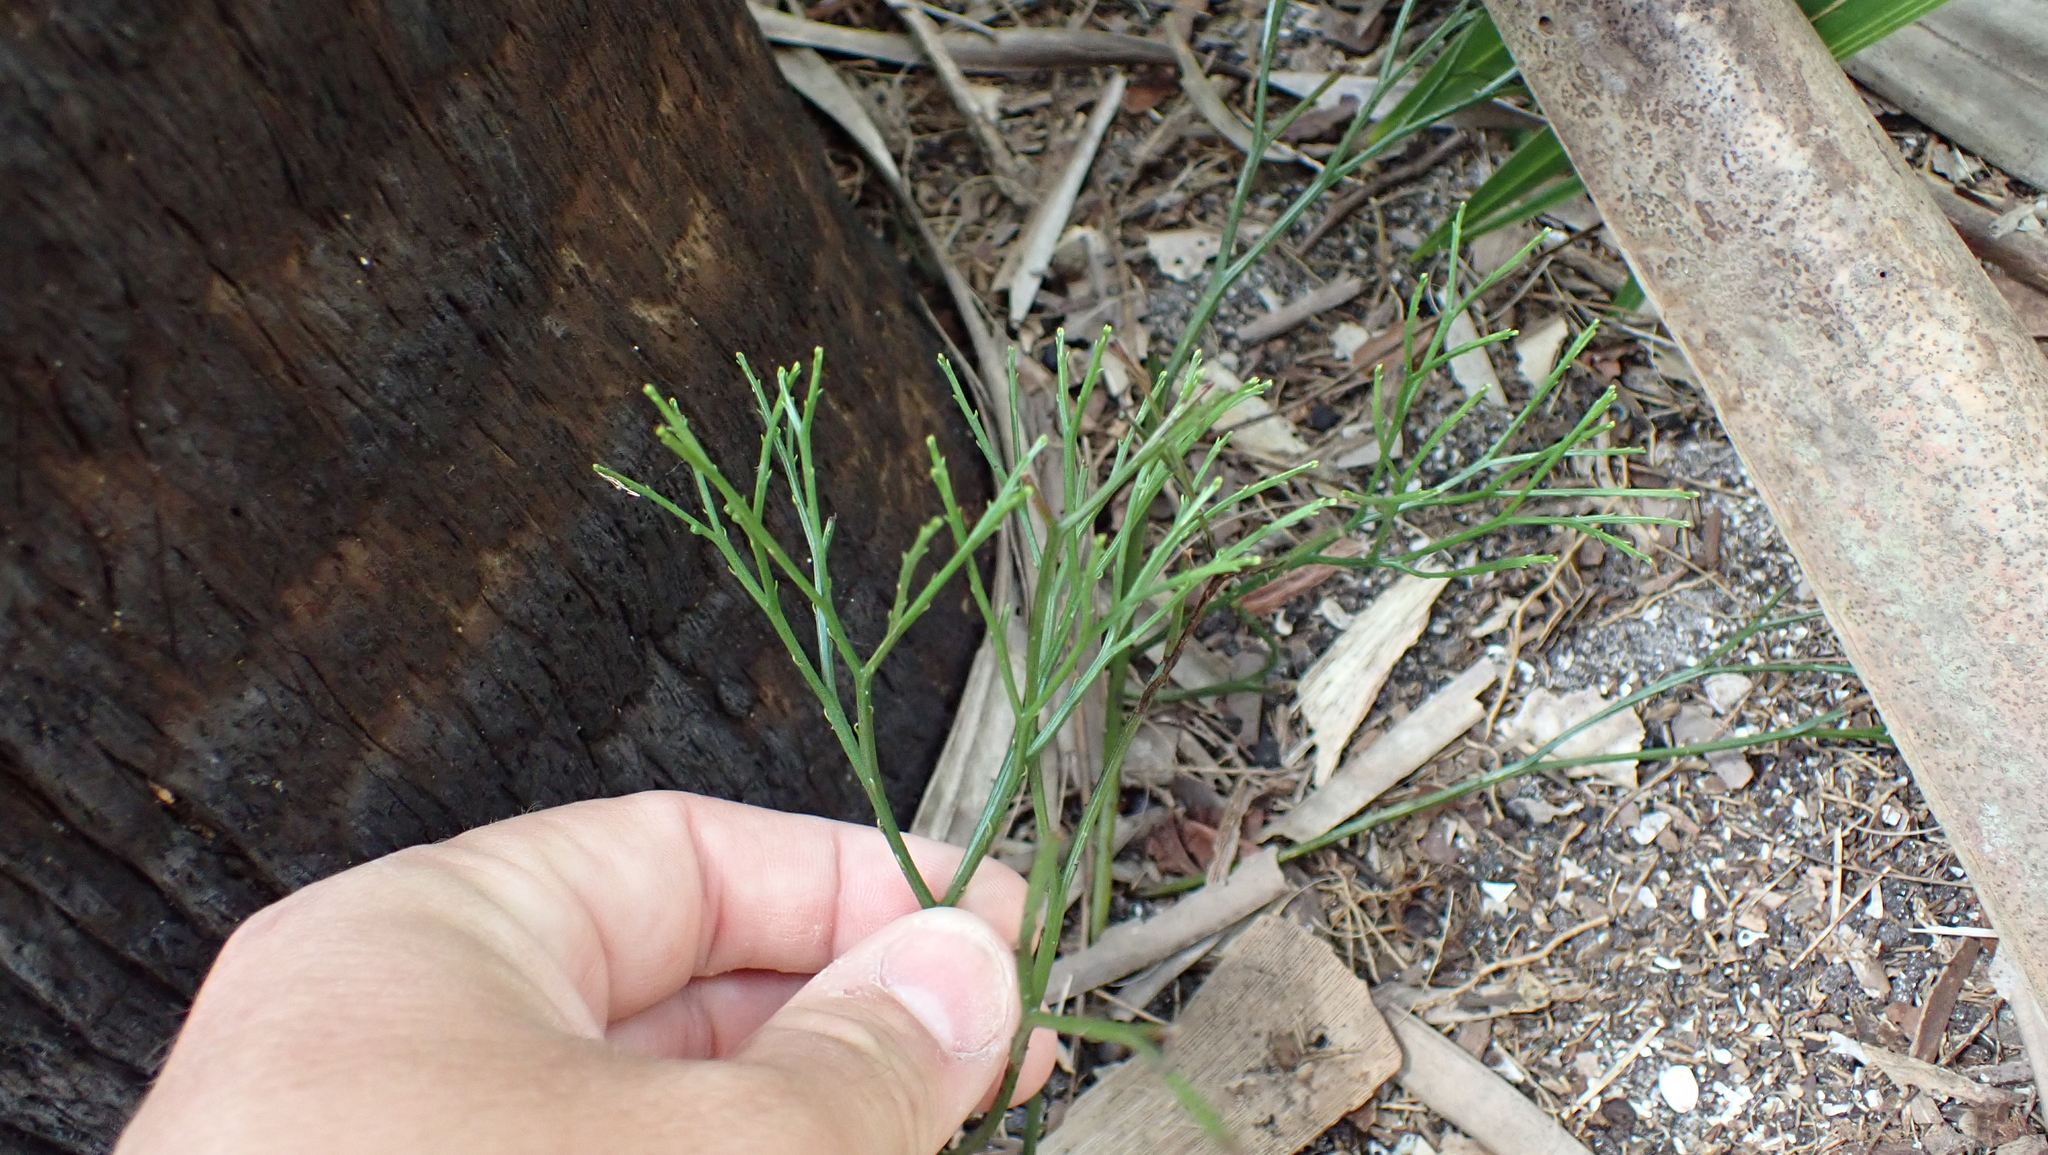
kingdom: Plantae
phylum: Tracheophyta
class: Polypodiopsida
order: Psilotales
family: Psilotaceae
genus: Psilotum
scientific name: Psilotum nudum
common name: Skeleton fork fern
